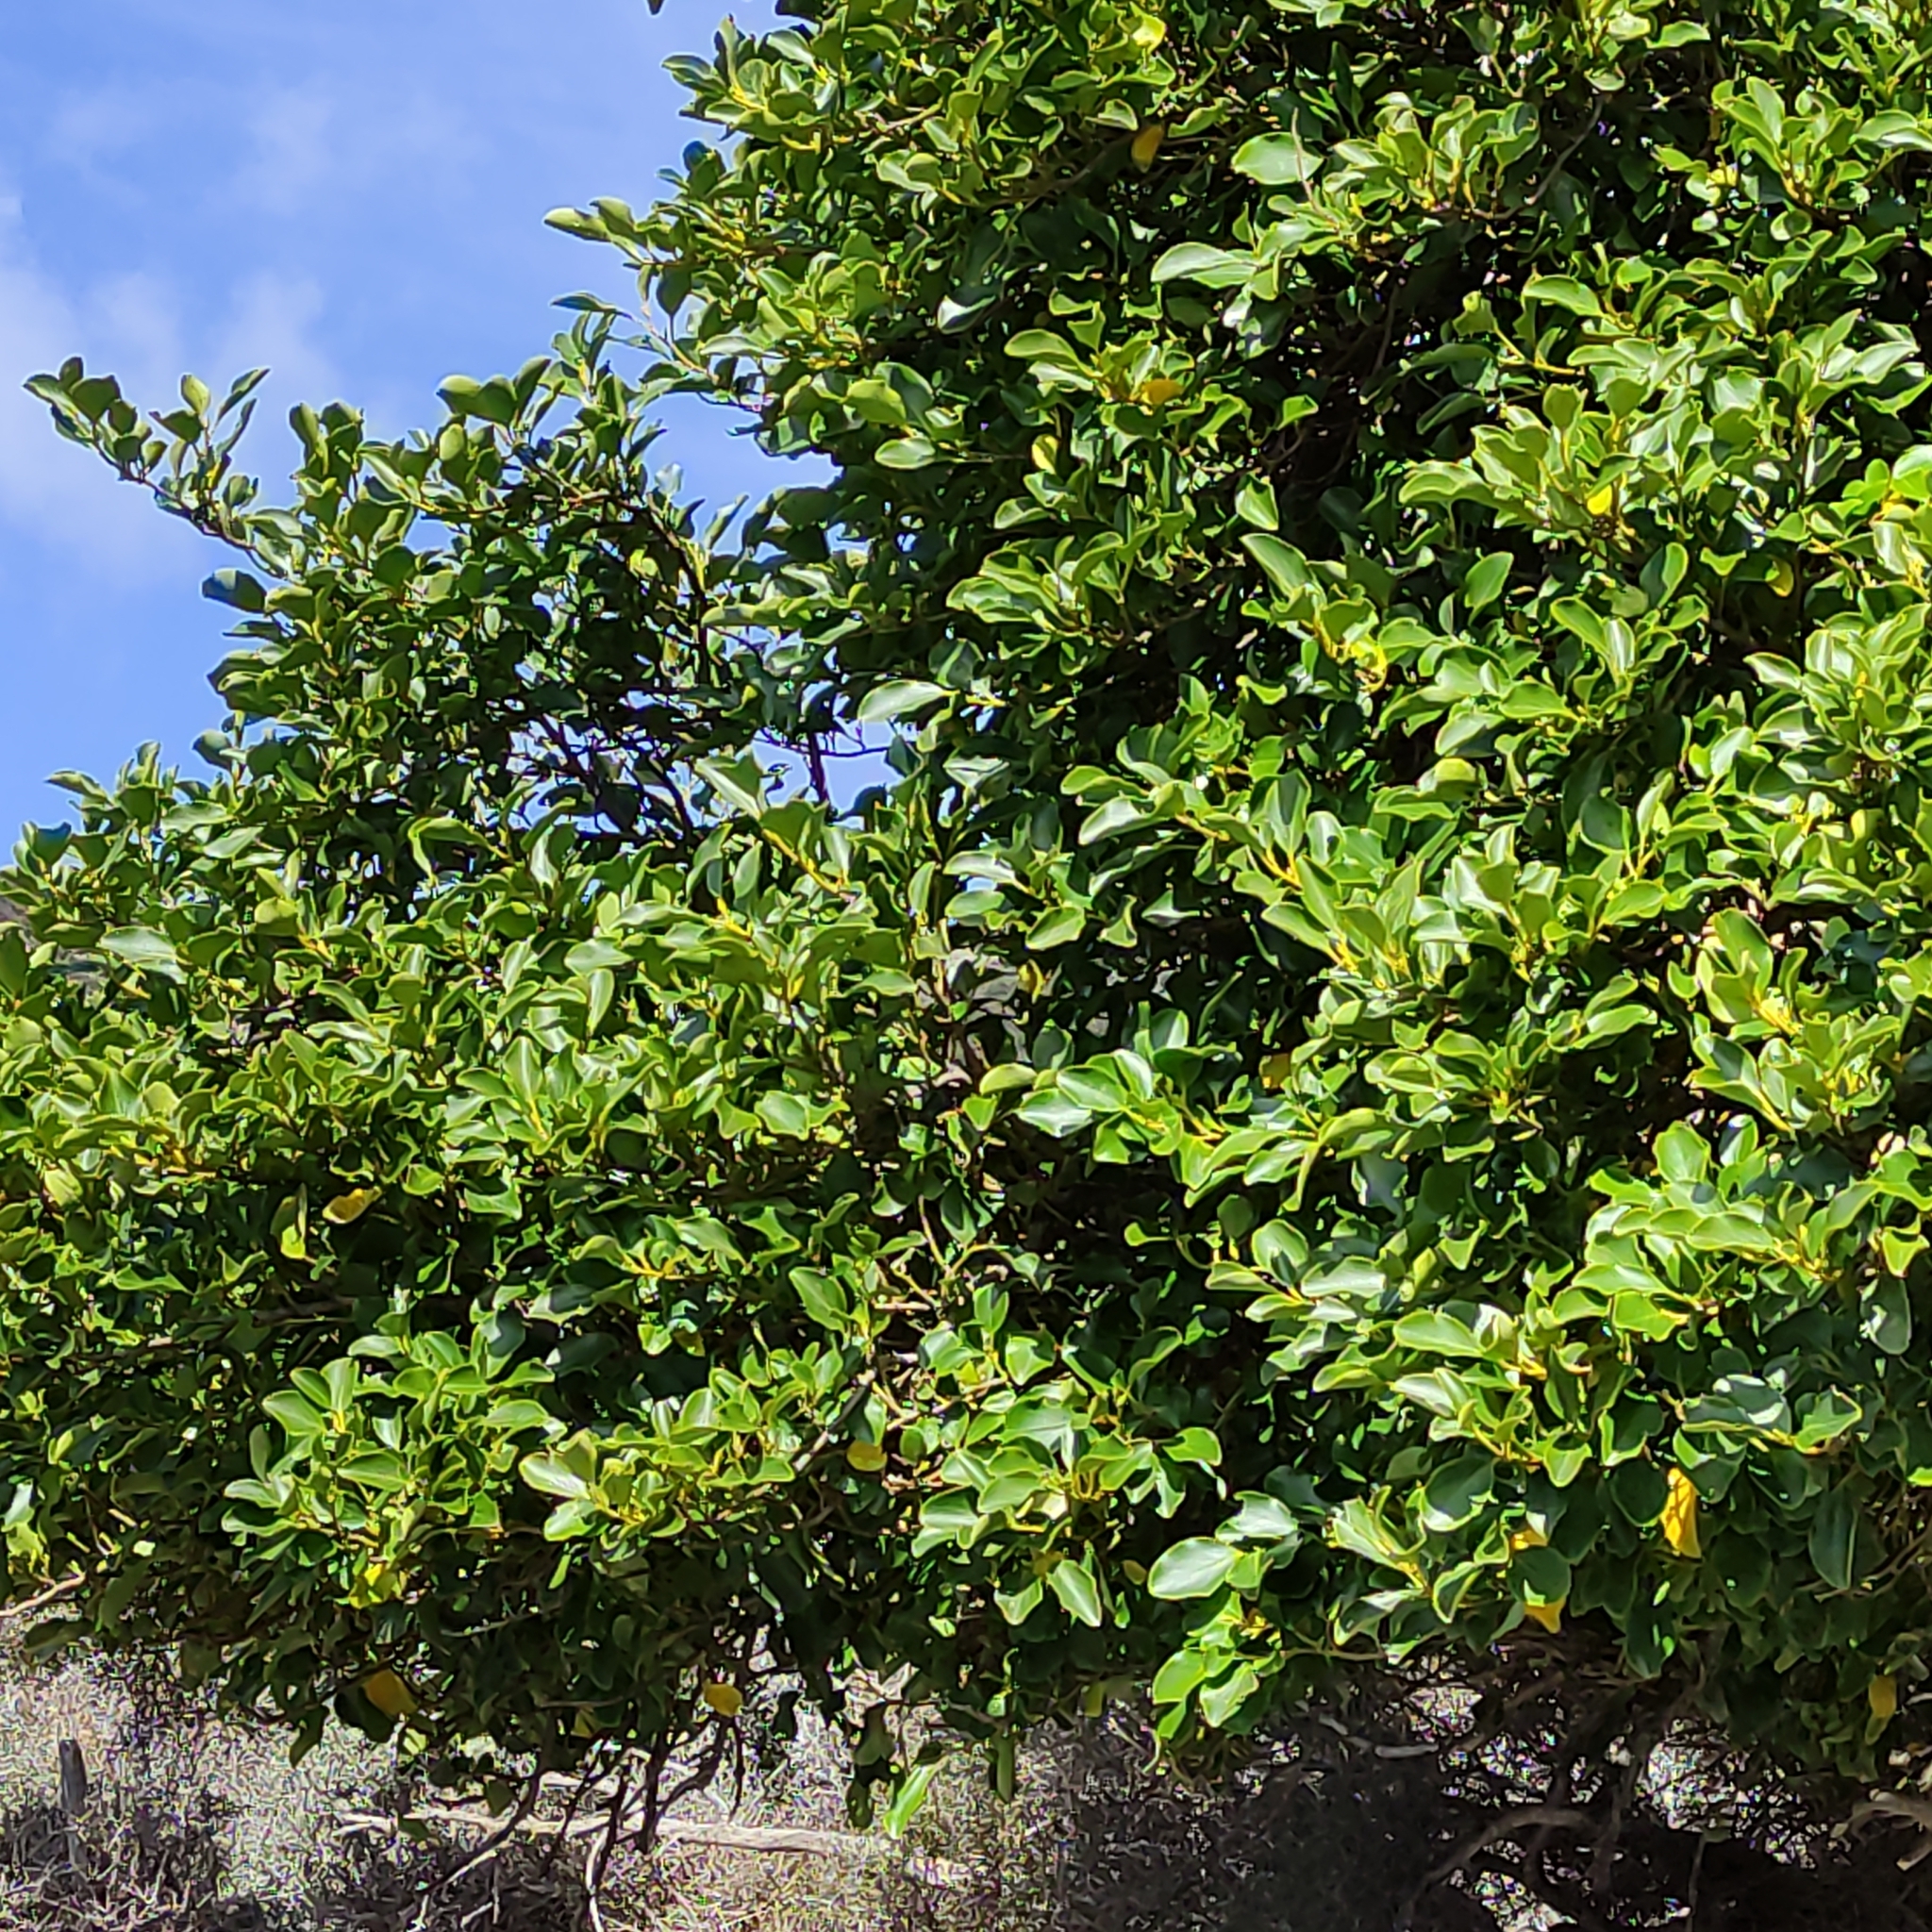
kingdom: Plantae
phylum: Tracheophyta
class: Magnoliopsida
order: Apiales
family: Griseliniaceae
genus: Griselinia
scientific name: Griselinia littoralis
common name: New zealand broadleaf
